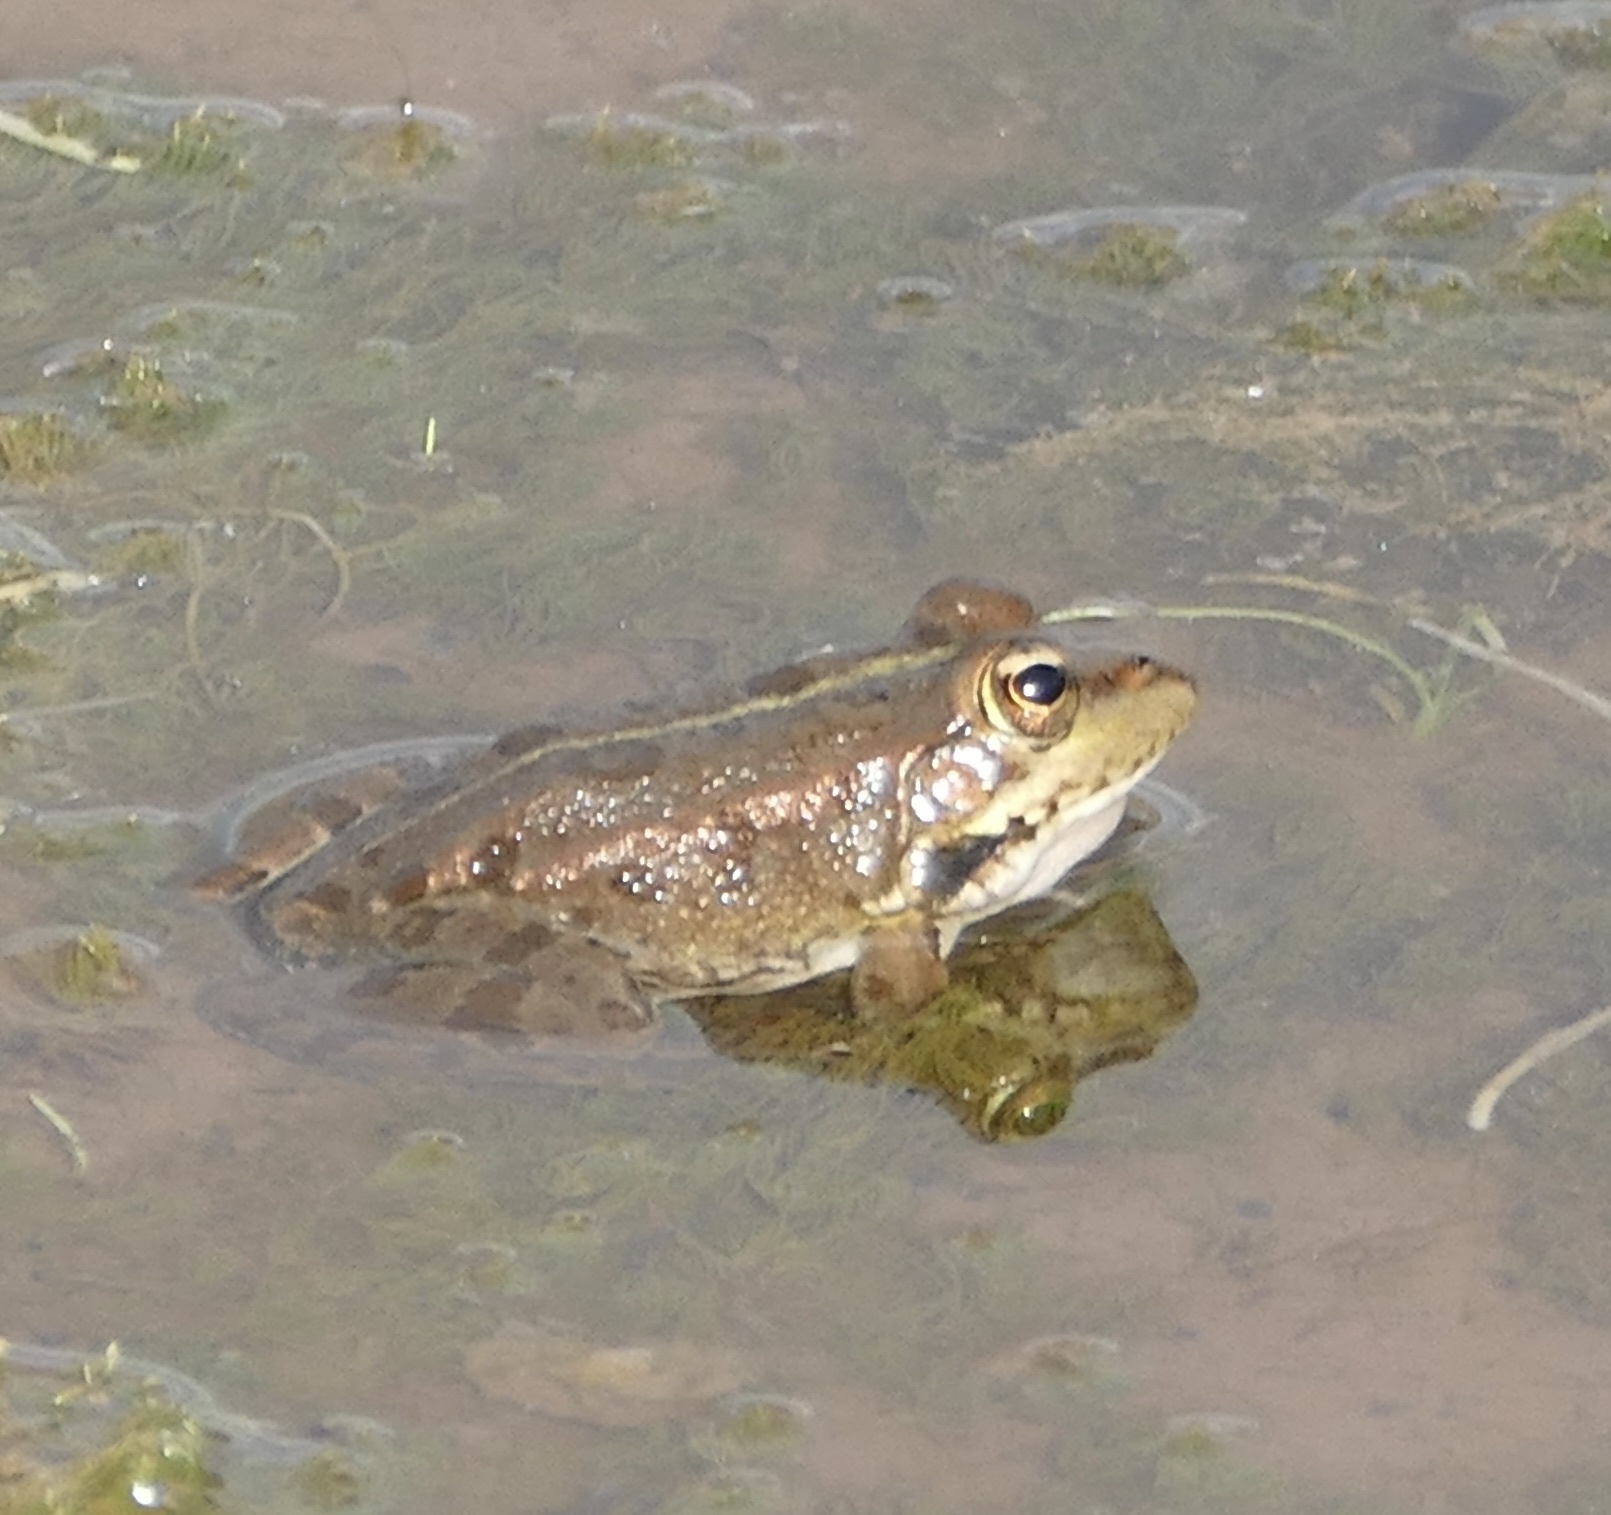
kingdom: Animalia
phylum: Chordata
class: Amphibia
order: Anura
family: Ranidae
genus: Pelophylax
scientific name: Pelophylax saharicus
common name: Sahara frog
